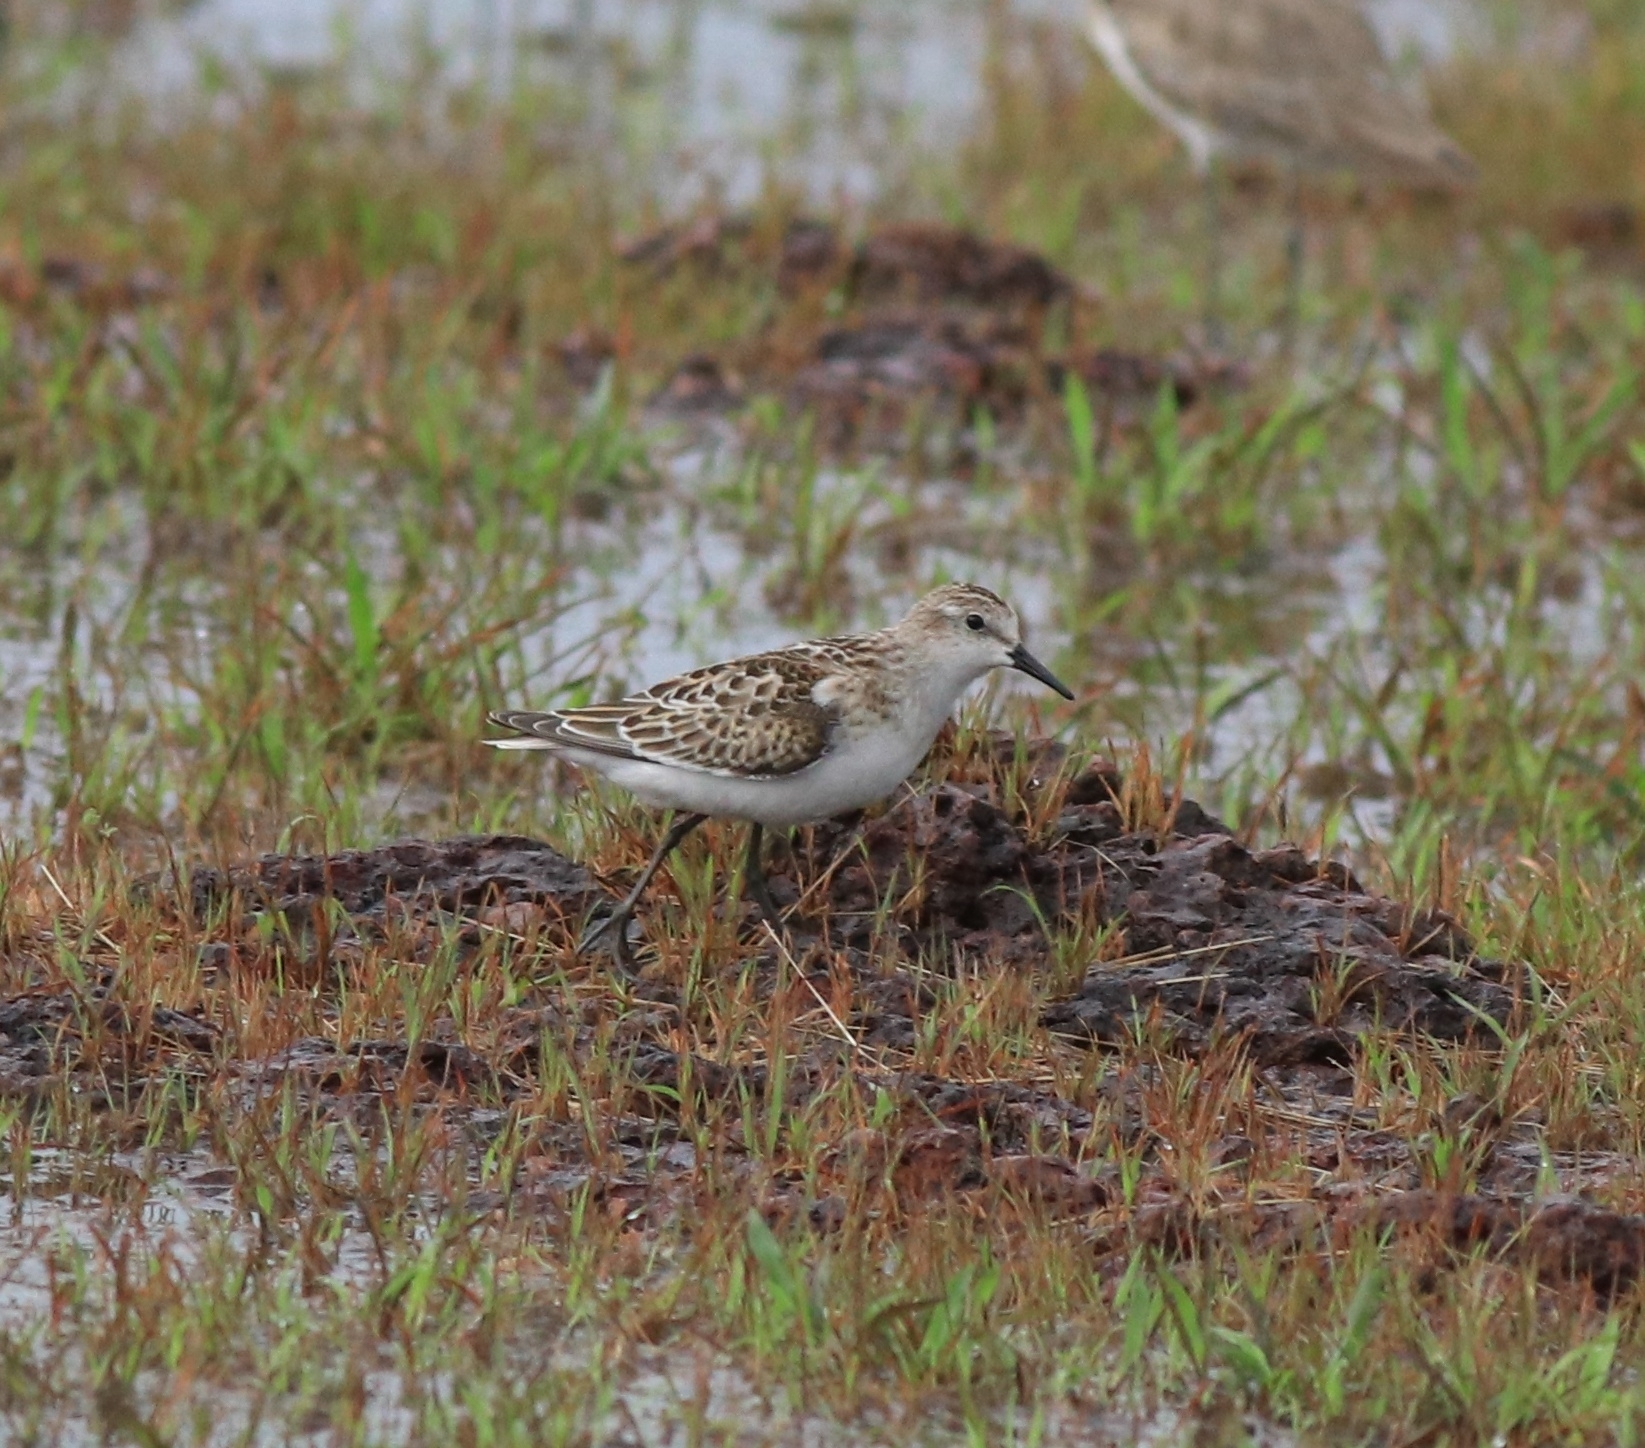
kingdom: Animalia
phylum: Chordata
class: Aves
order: Charadriiformes
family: Scolopacidae
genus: Calidris
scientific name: Calidris minuta
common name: Little stint
